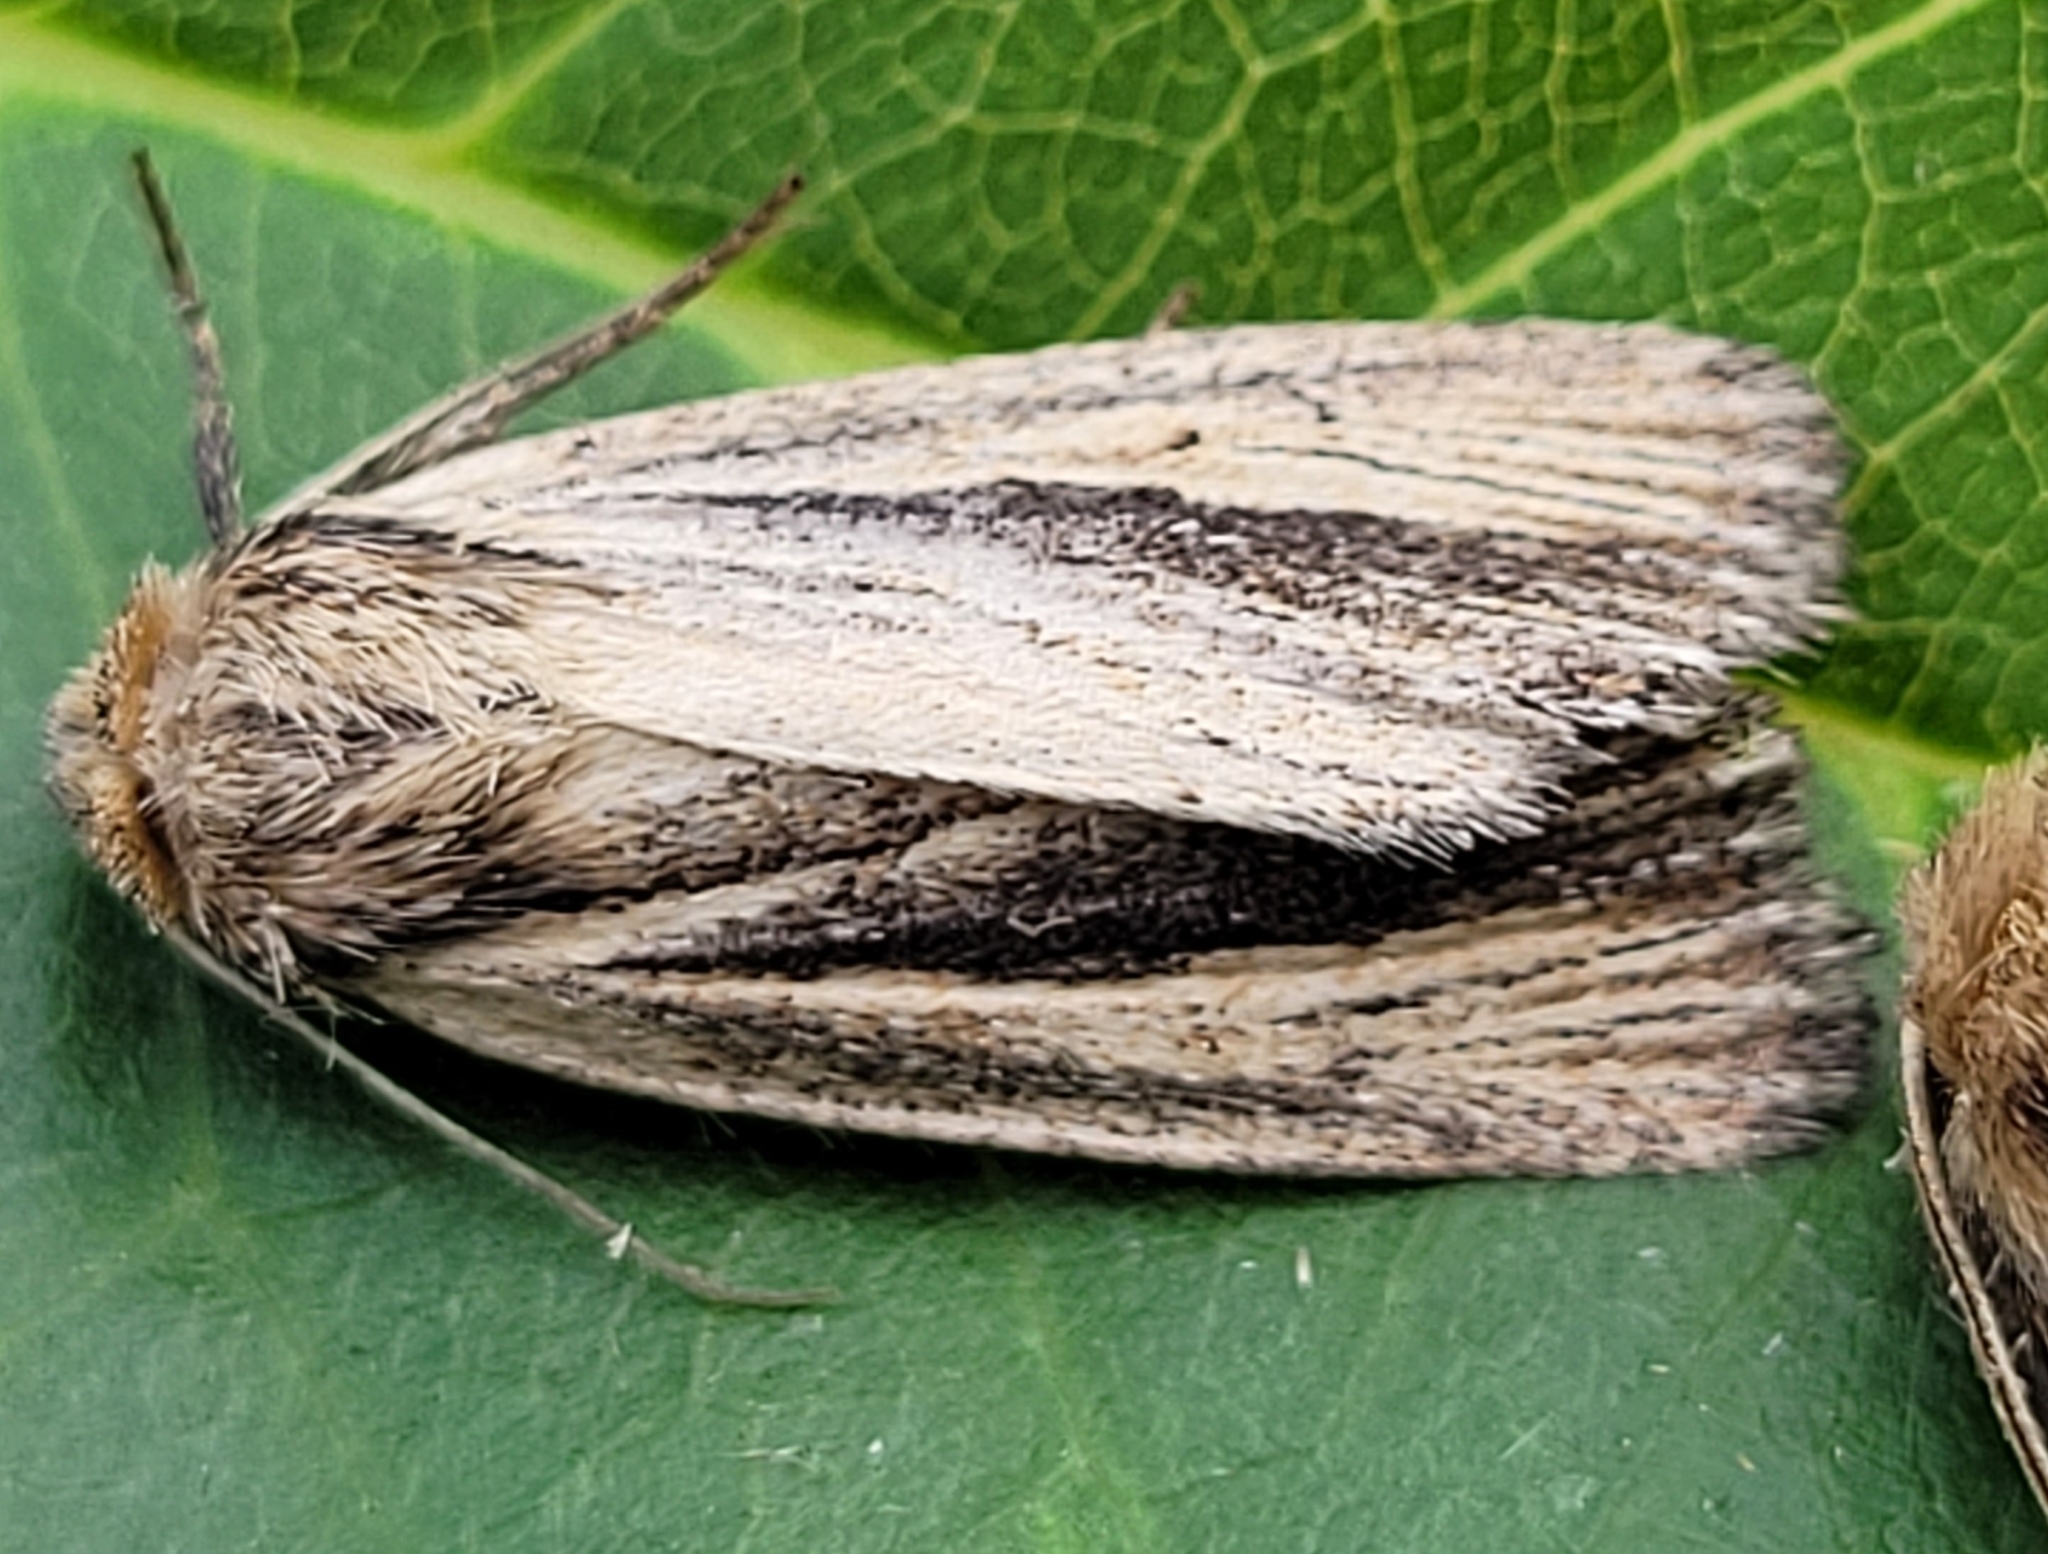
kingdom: Animalia
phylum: Arthropoda
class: Insecta
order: Lepidoptera
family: Noctuidae
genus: Hypocoena
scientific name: Hypocoena rufostrigata
